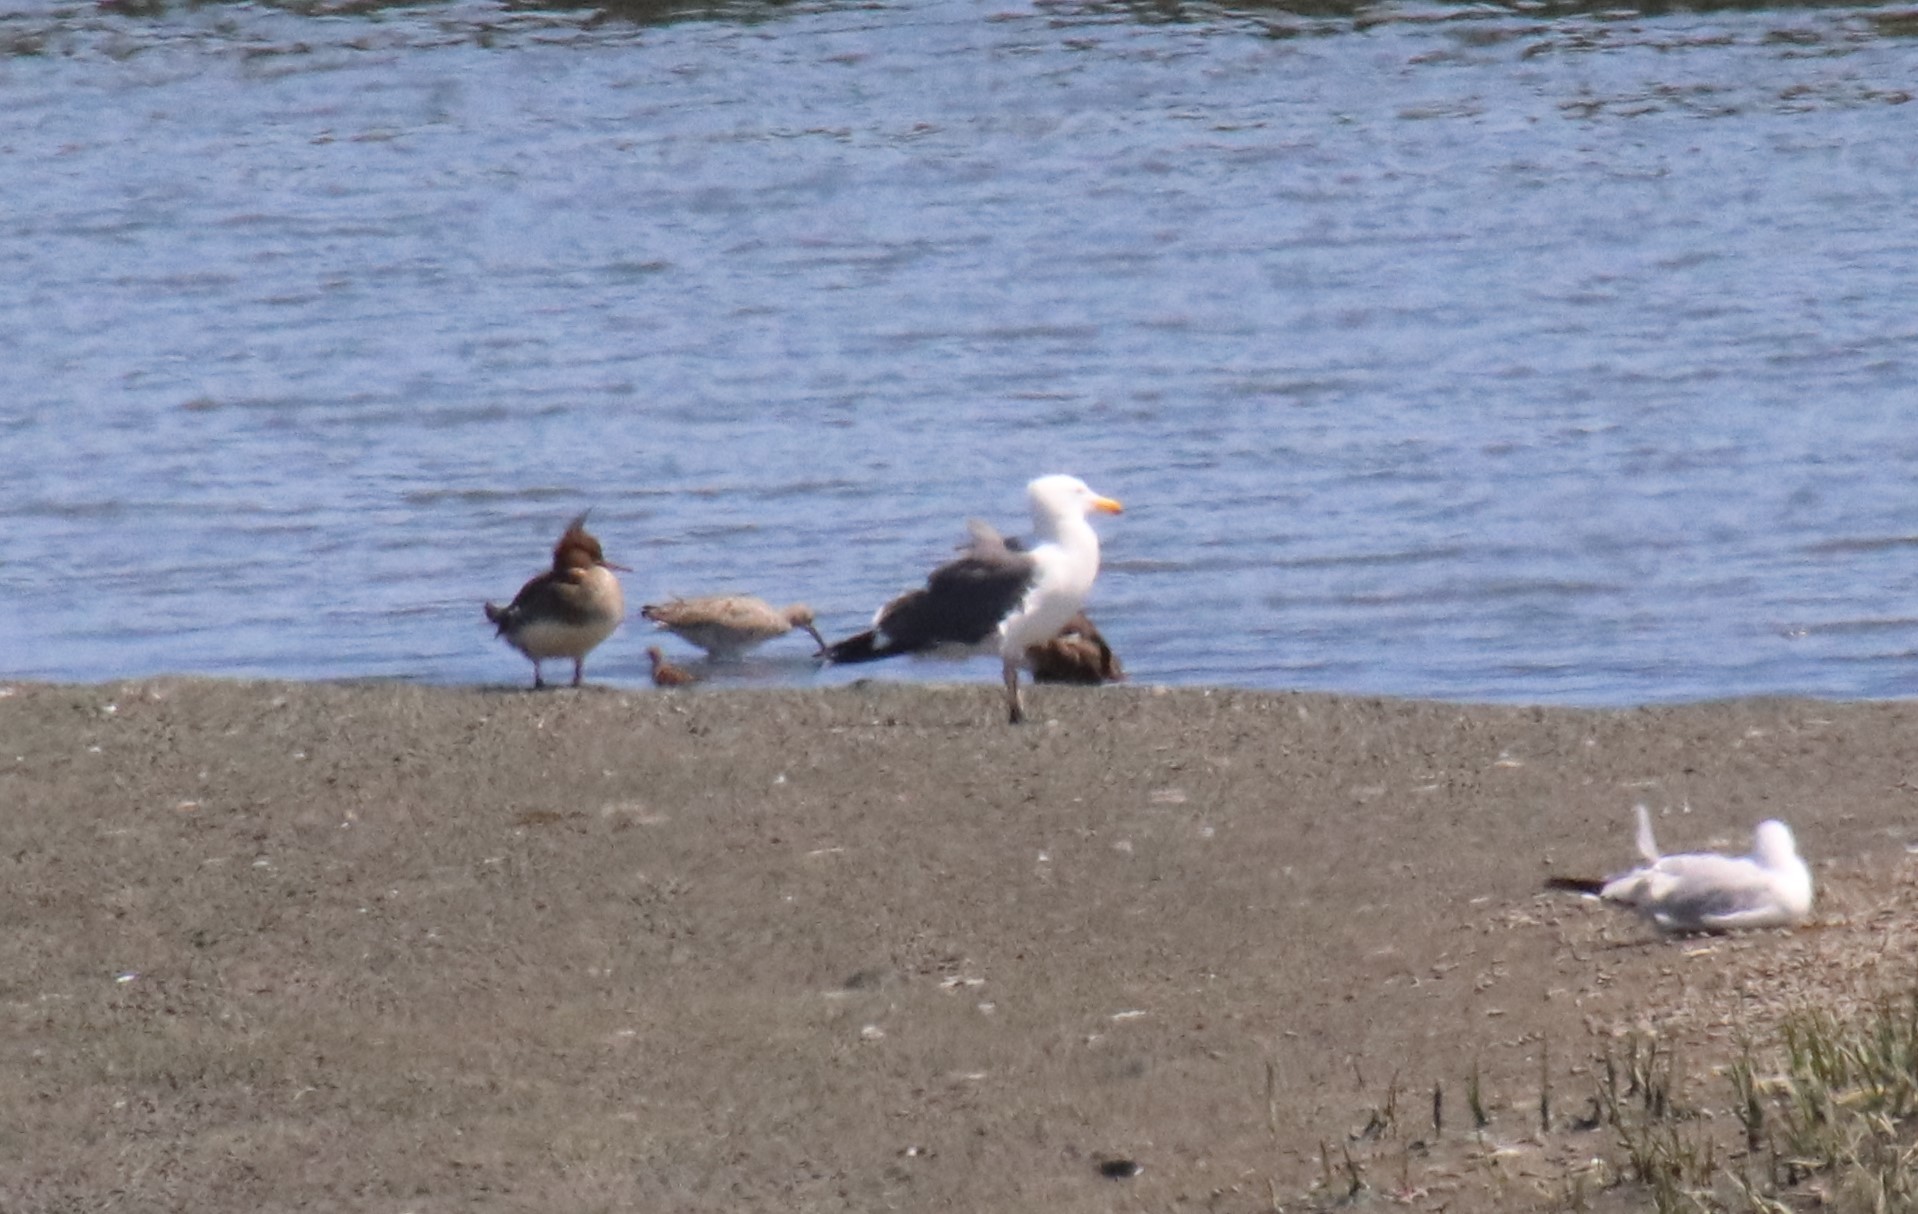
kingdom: Animalia
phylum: Chordata
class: Aves
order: Charadriiformes
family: Laridae
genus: Larus
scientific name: Larus occidentalis
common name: Western gull
